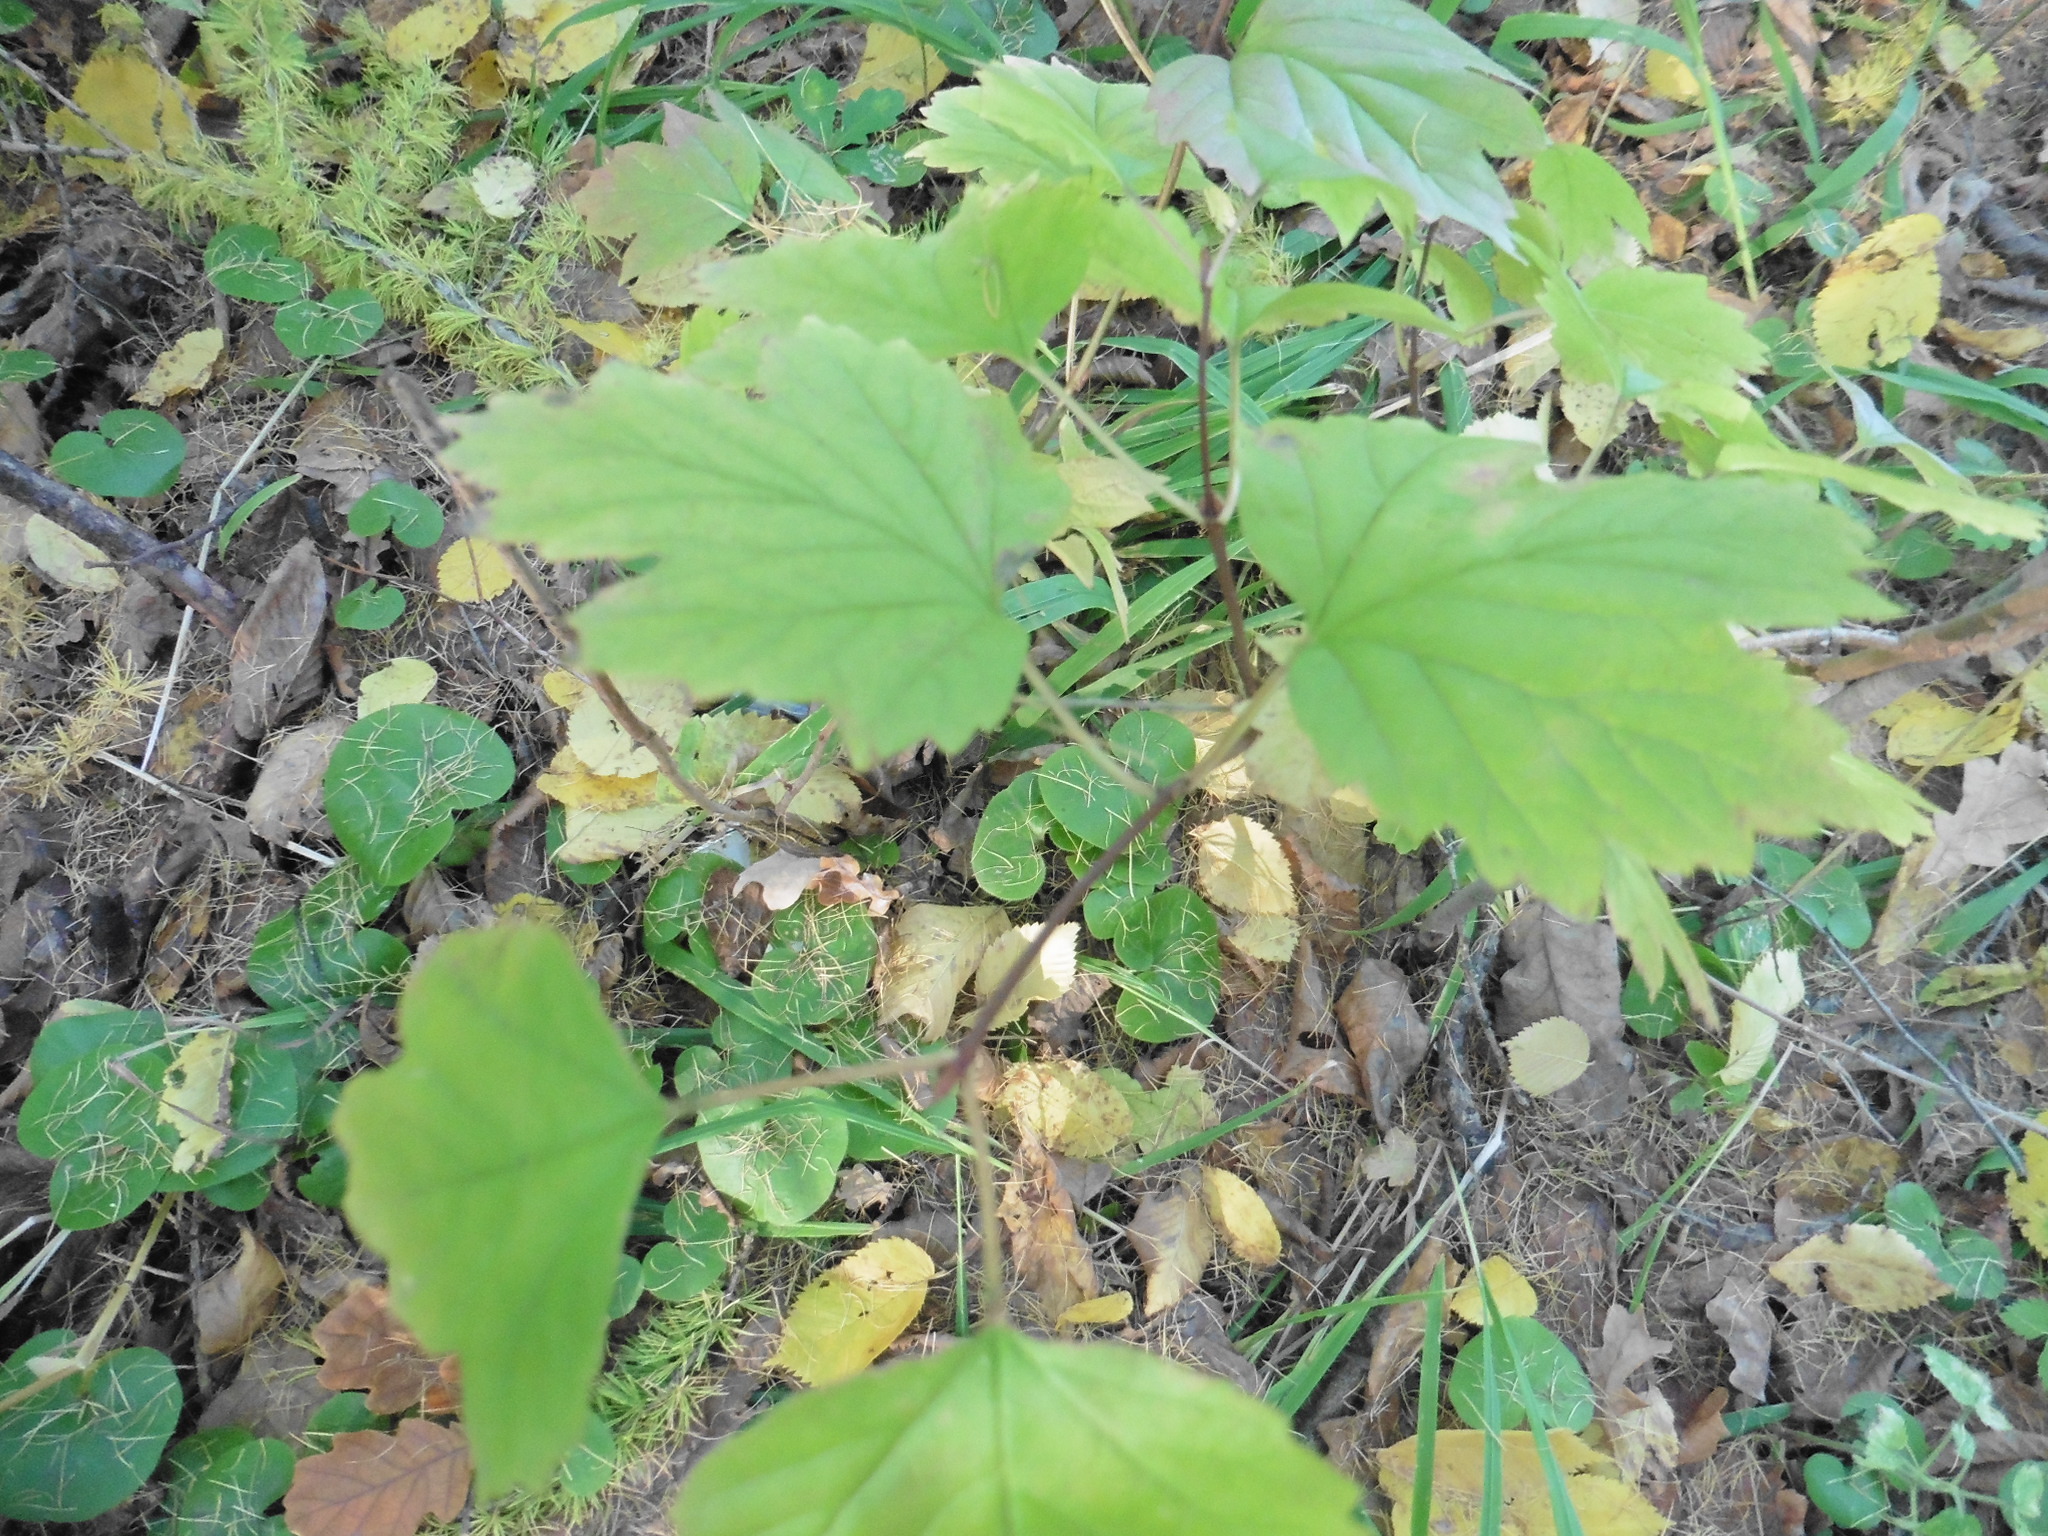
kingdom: Plantae
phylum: Tracheophyta
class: Magnoliopsida
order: Dipsacales
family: Viburnaceae
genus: Viburnum
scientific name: Viburnum opulus
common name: Guelder-rose
